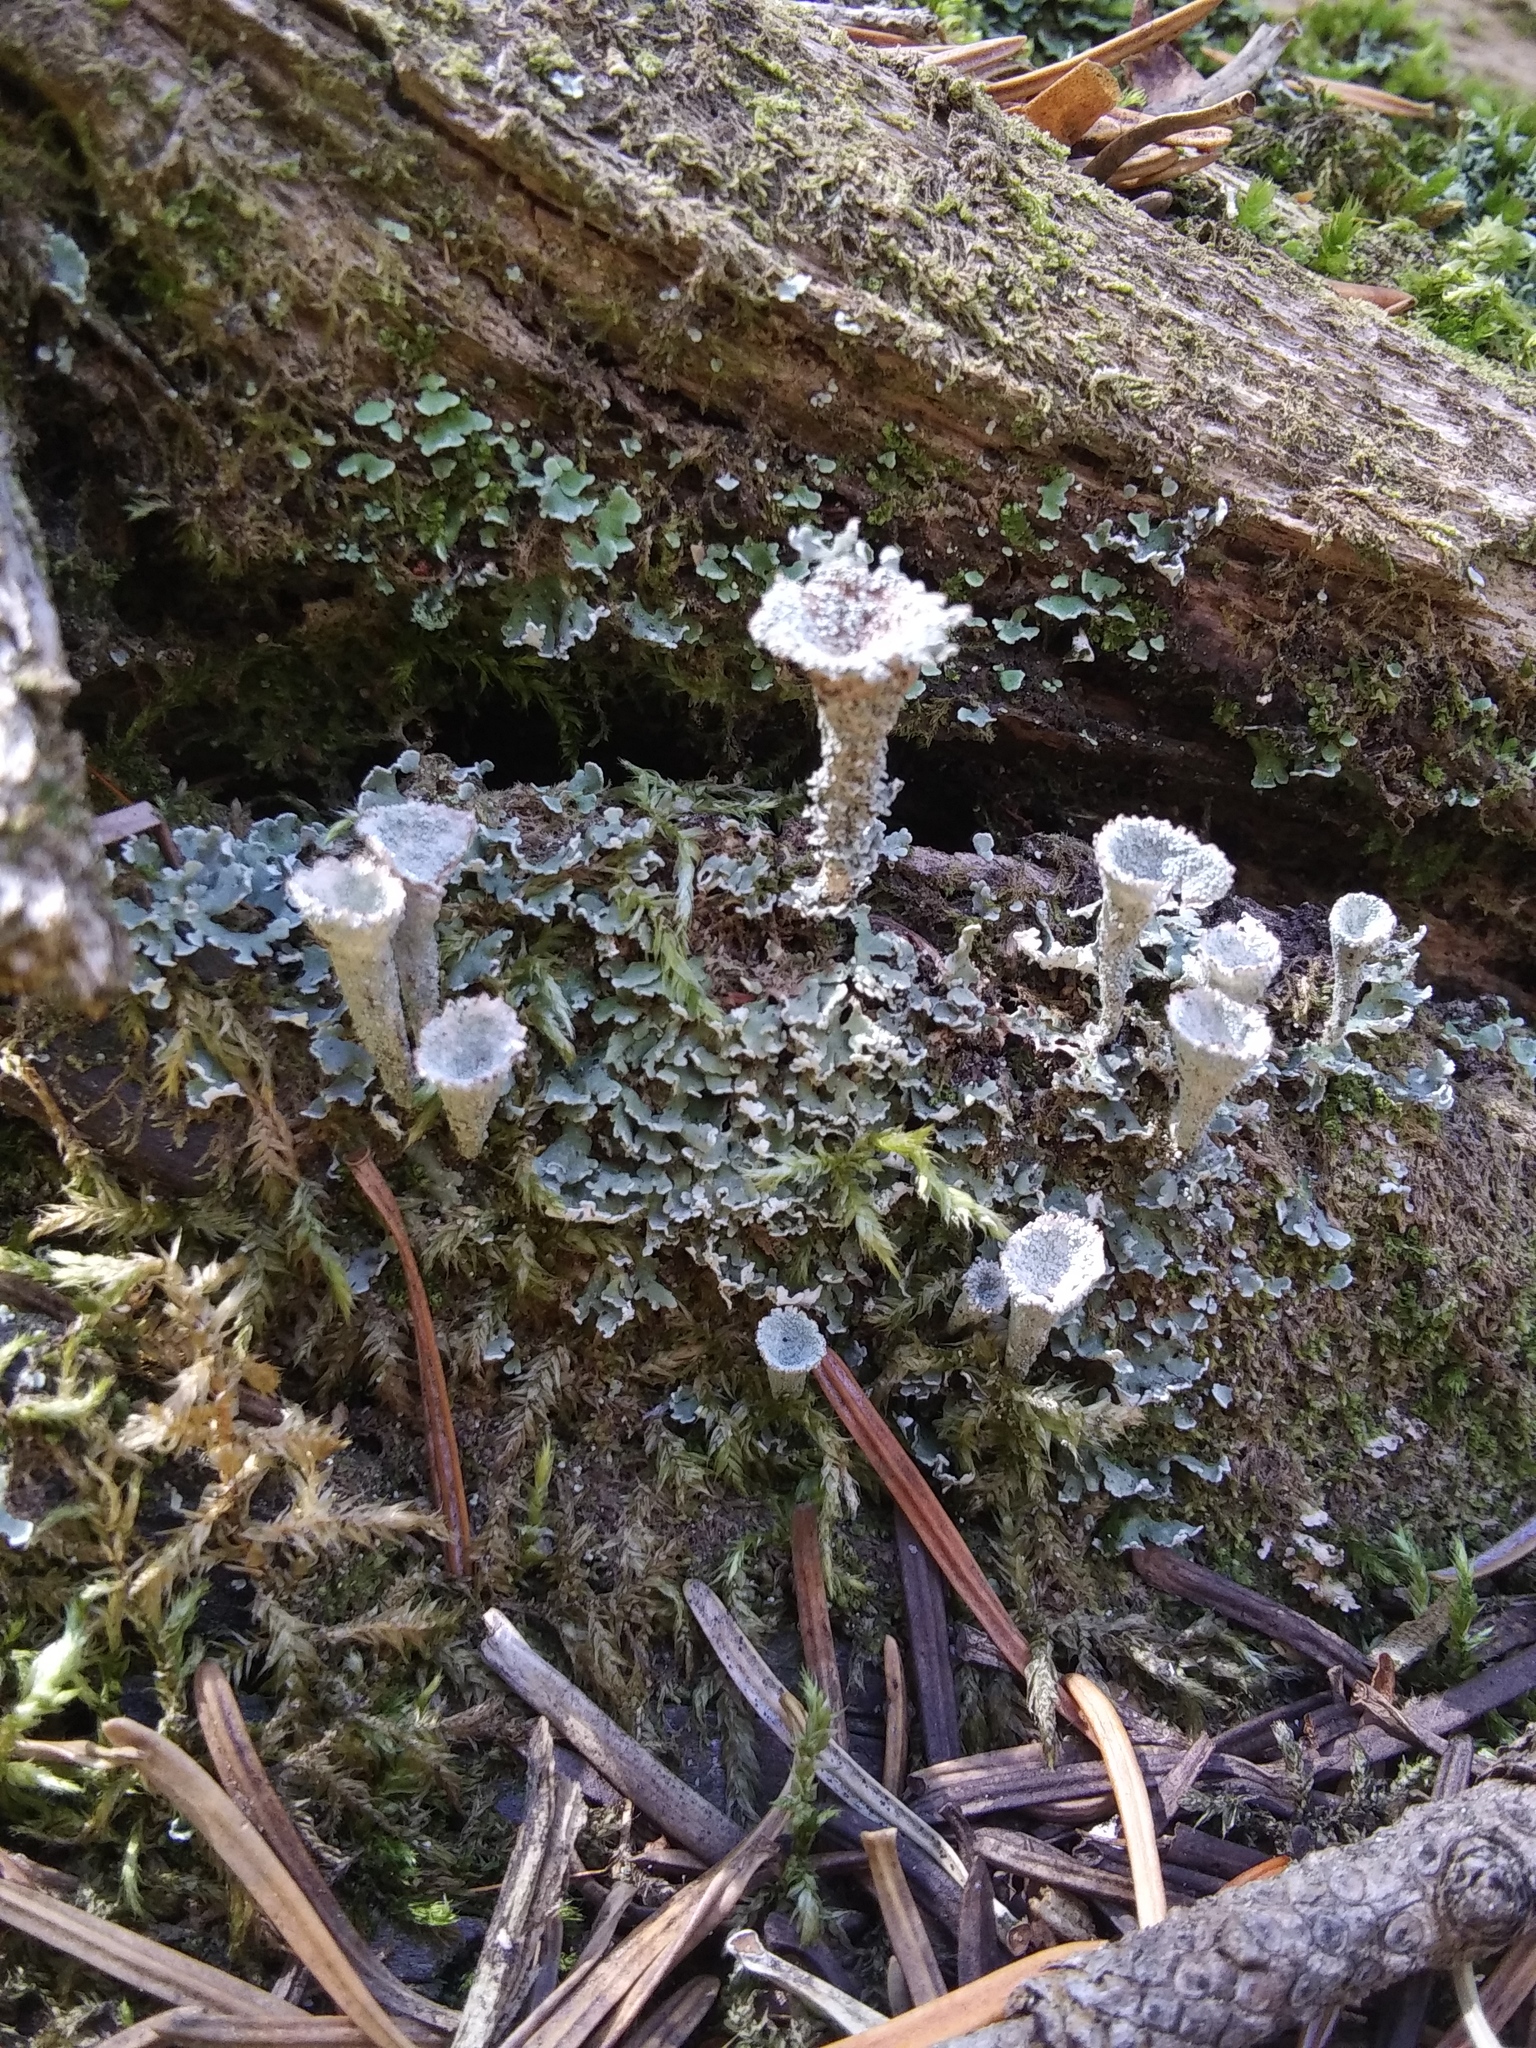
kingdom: Fungi
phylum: Ascomycota
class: Lecanoromycetes
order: Lecanorales
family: Cladoniaceae
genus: Cladonia
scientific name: Cladonia pyxidata
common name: Pebbled pixie cup
